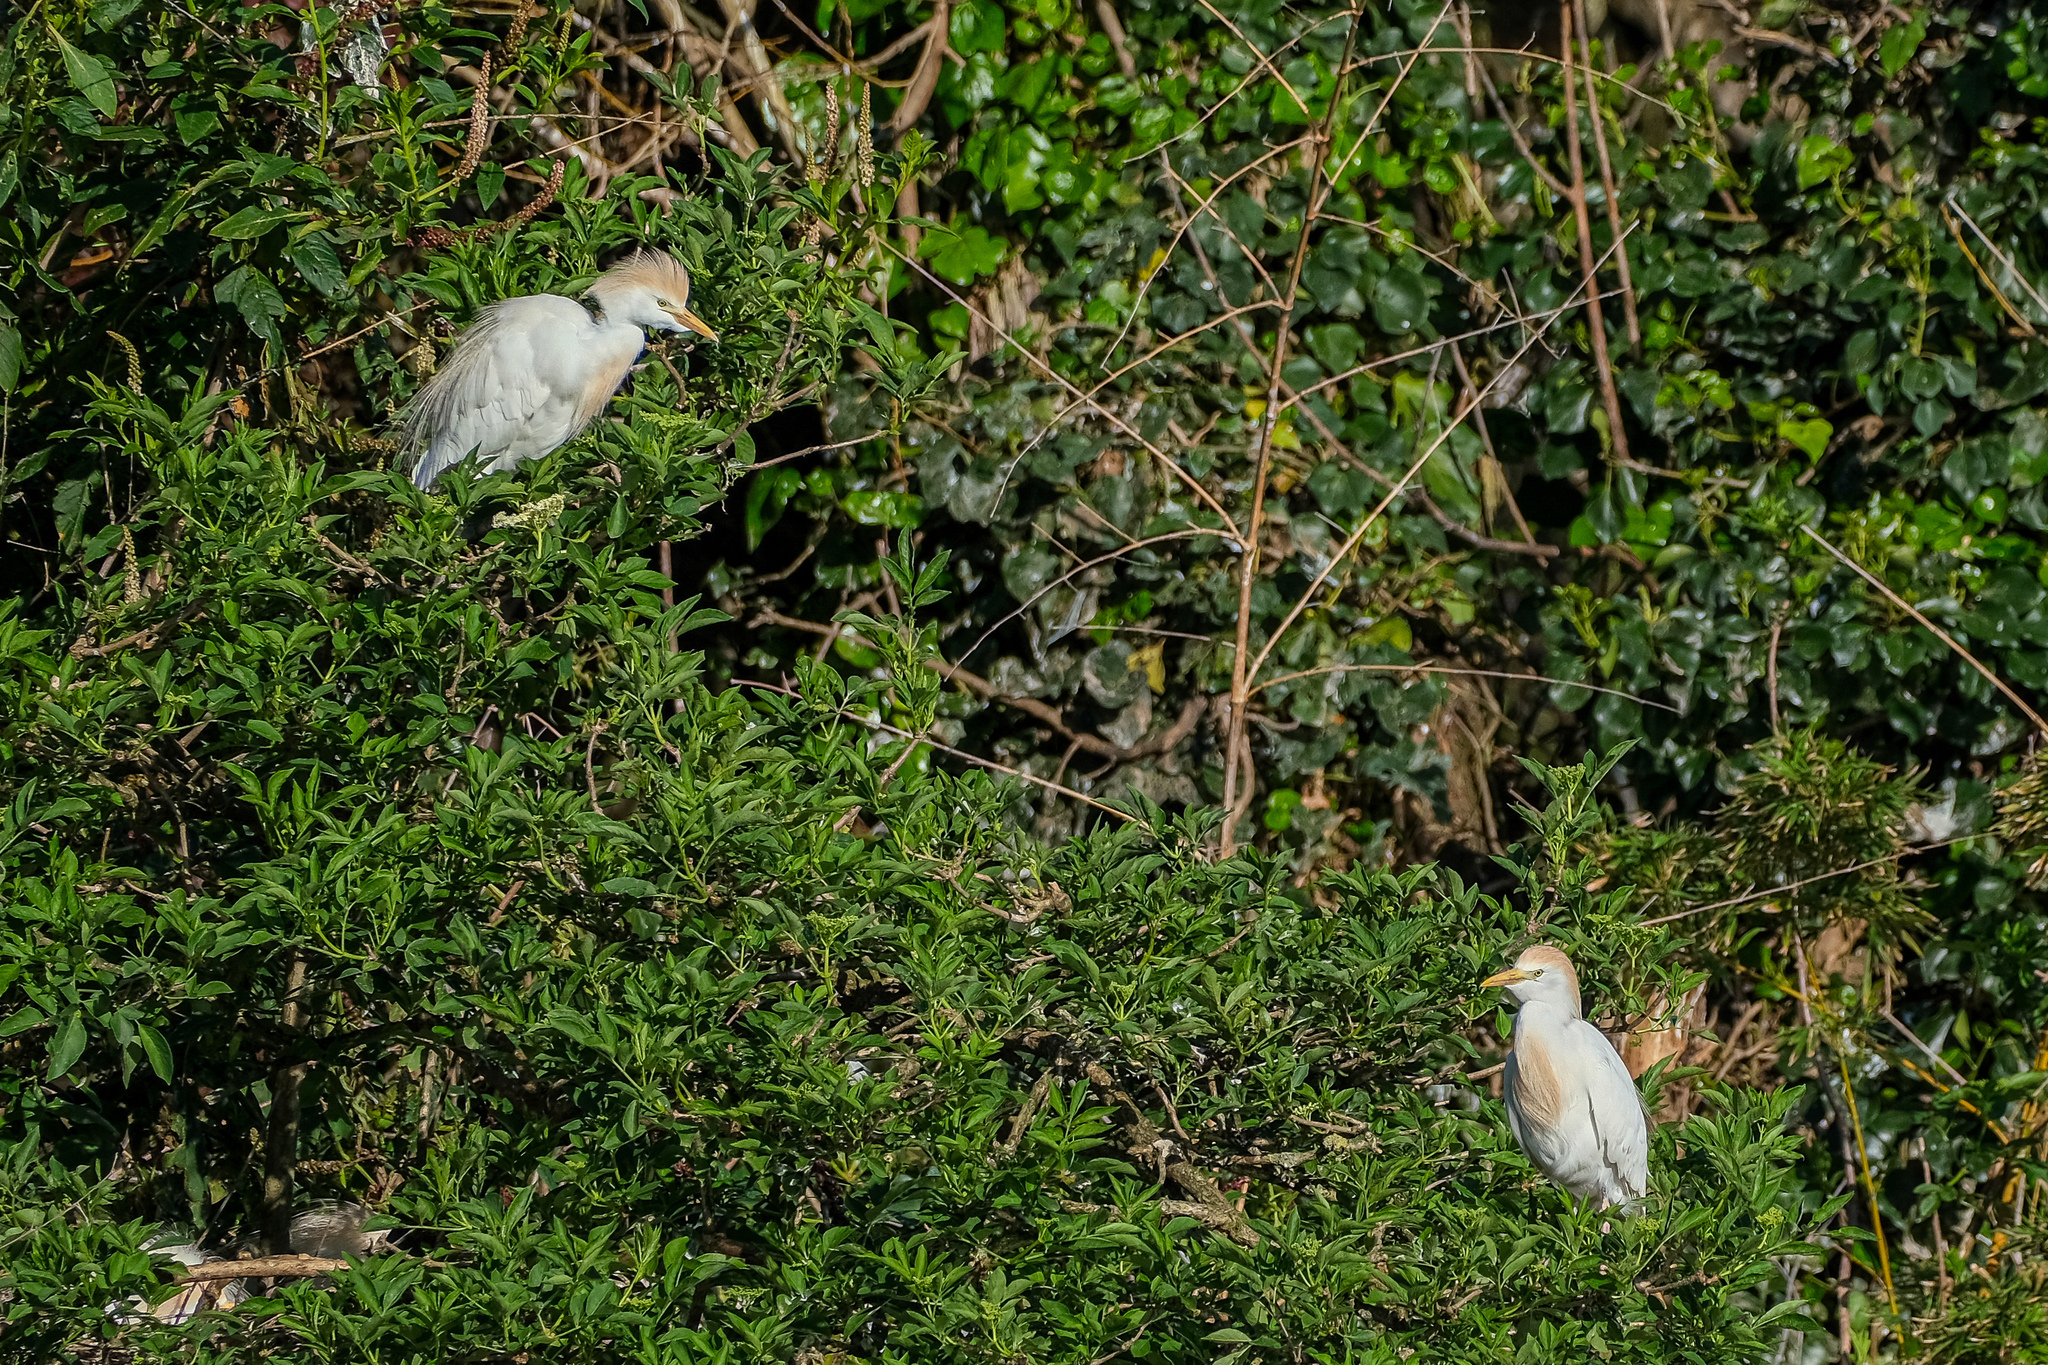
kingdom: Animalia
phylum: Chordata
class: Aves
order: Pelecaniformes
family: Ardeidae
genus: Bubulcus
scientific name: Bubulcus ibis
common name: Cattle egret
